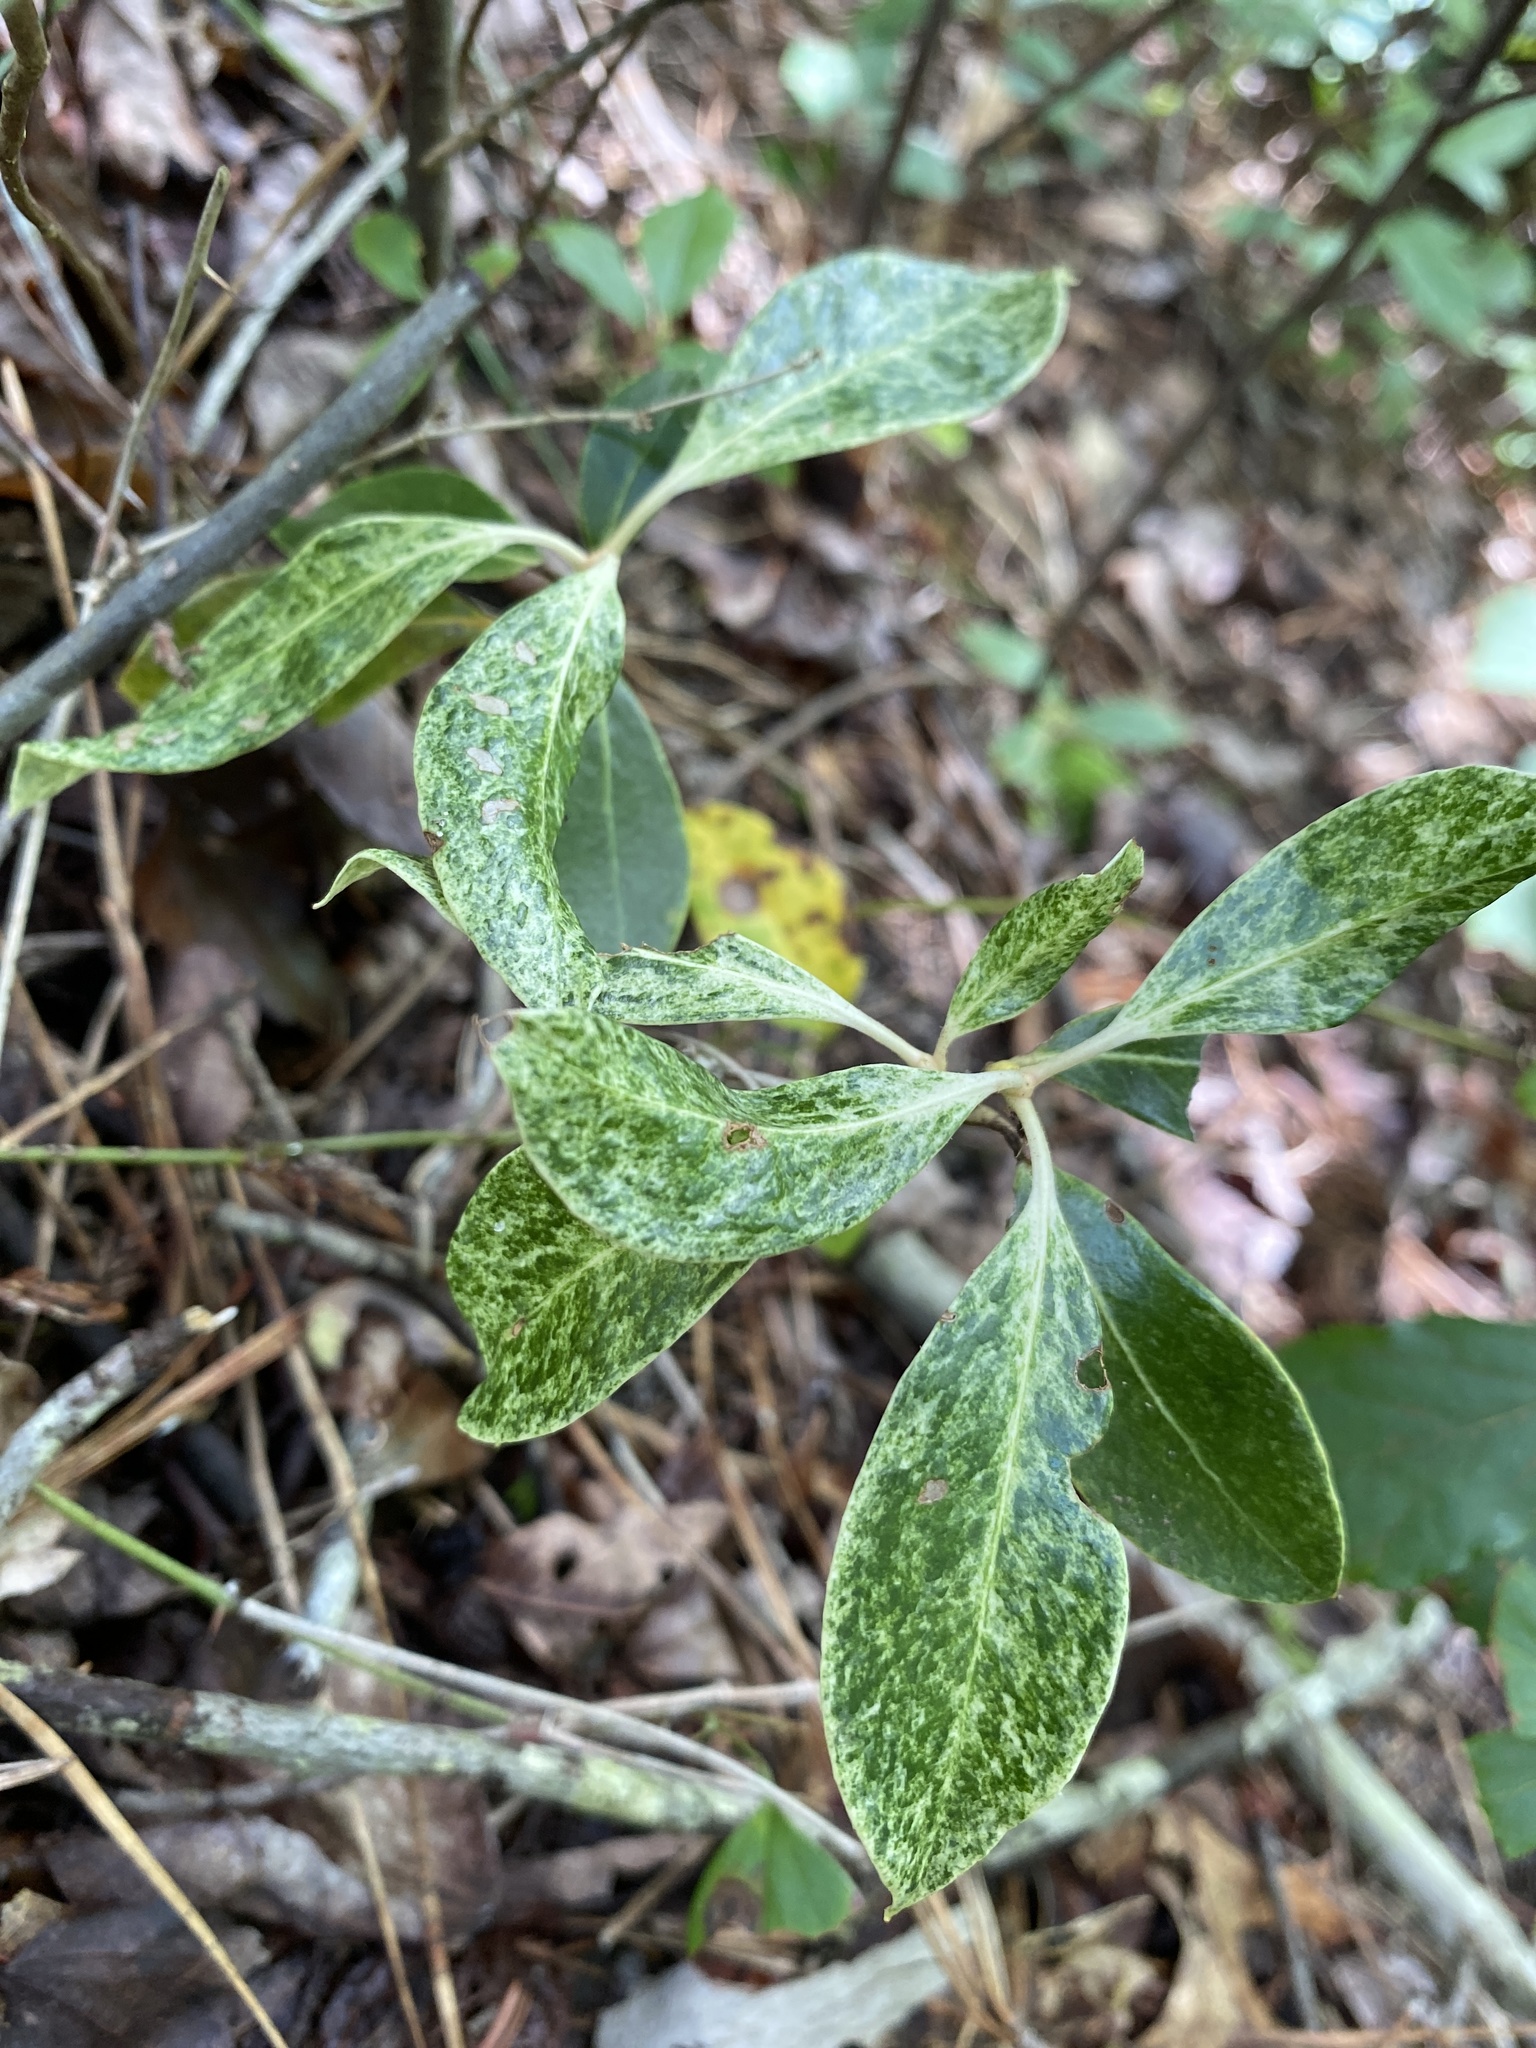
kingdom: Plantae
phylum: Tracheophyta
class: Magnoliopsida
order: Ericales
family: Ericaceae
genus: Kalmia
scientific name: Kalmia latifolia
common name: Mountain-laurel
